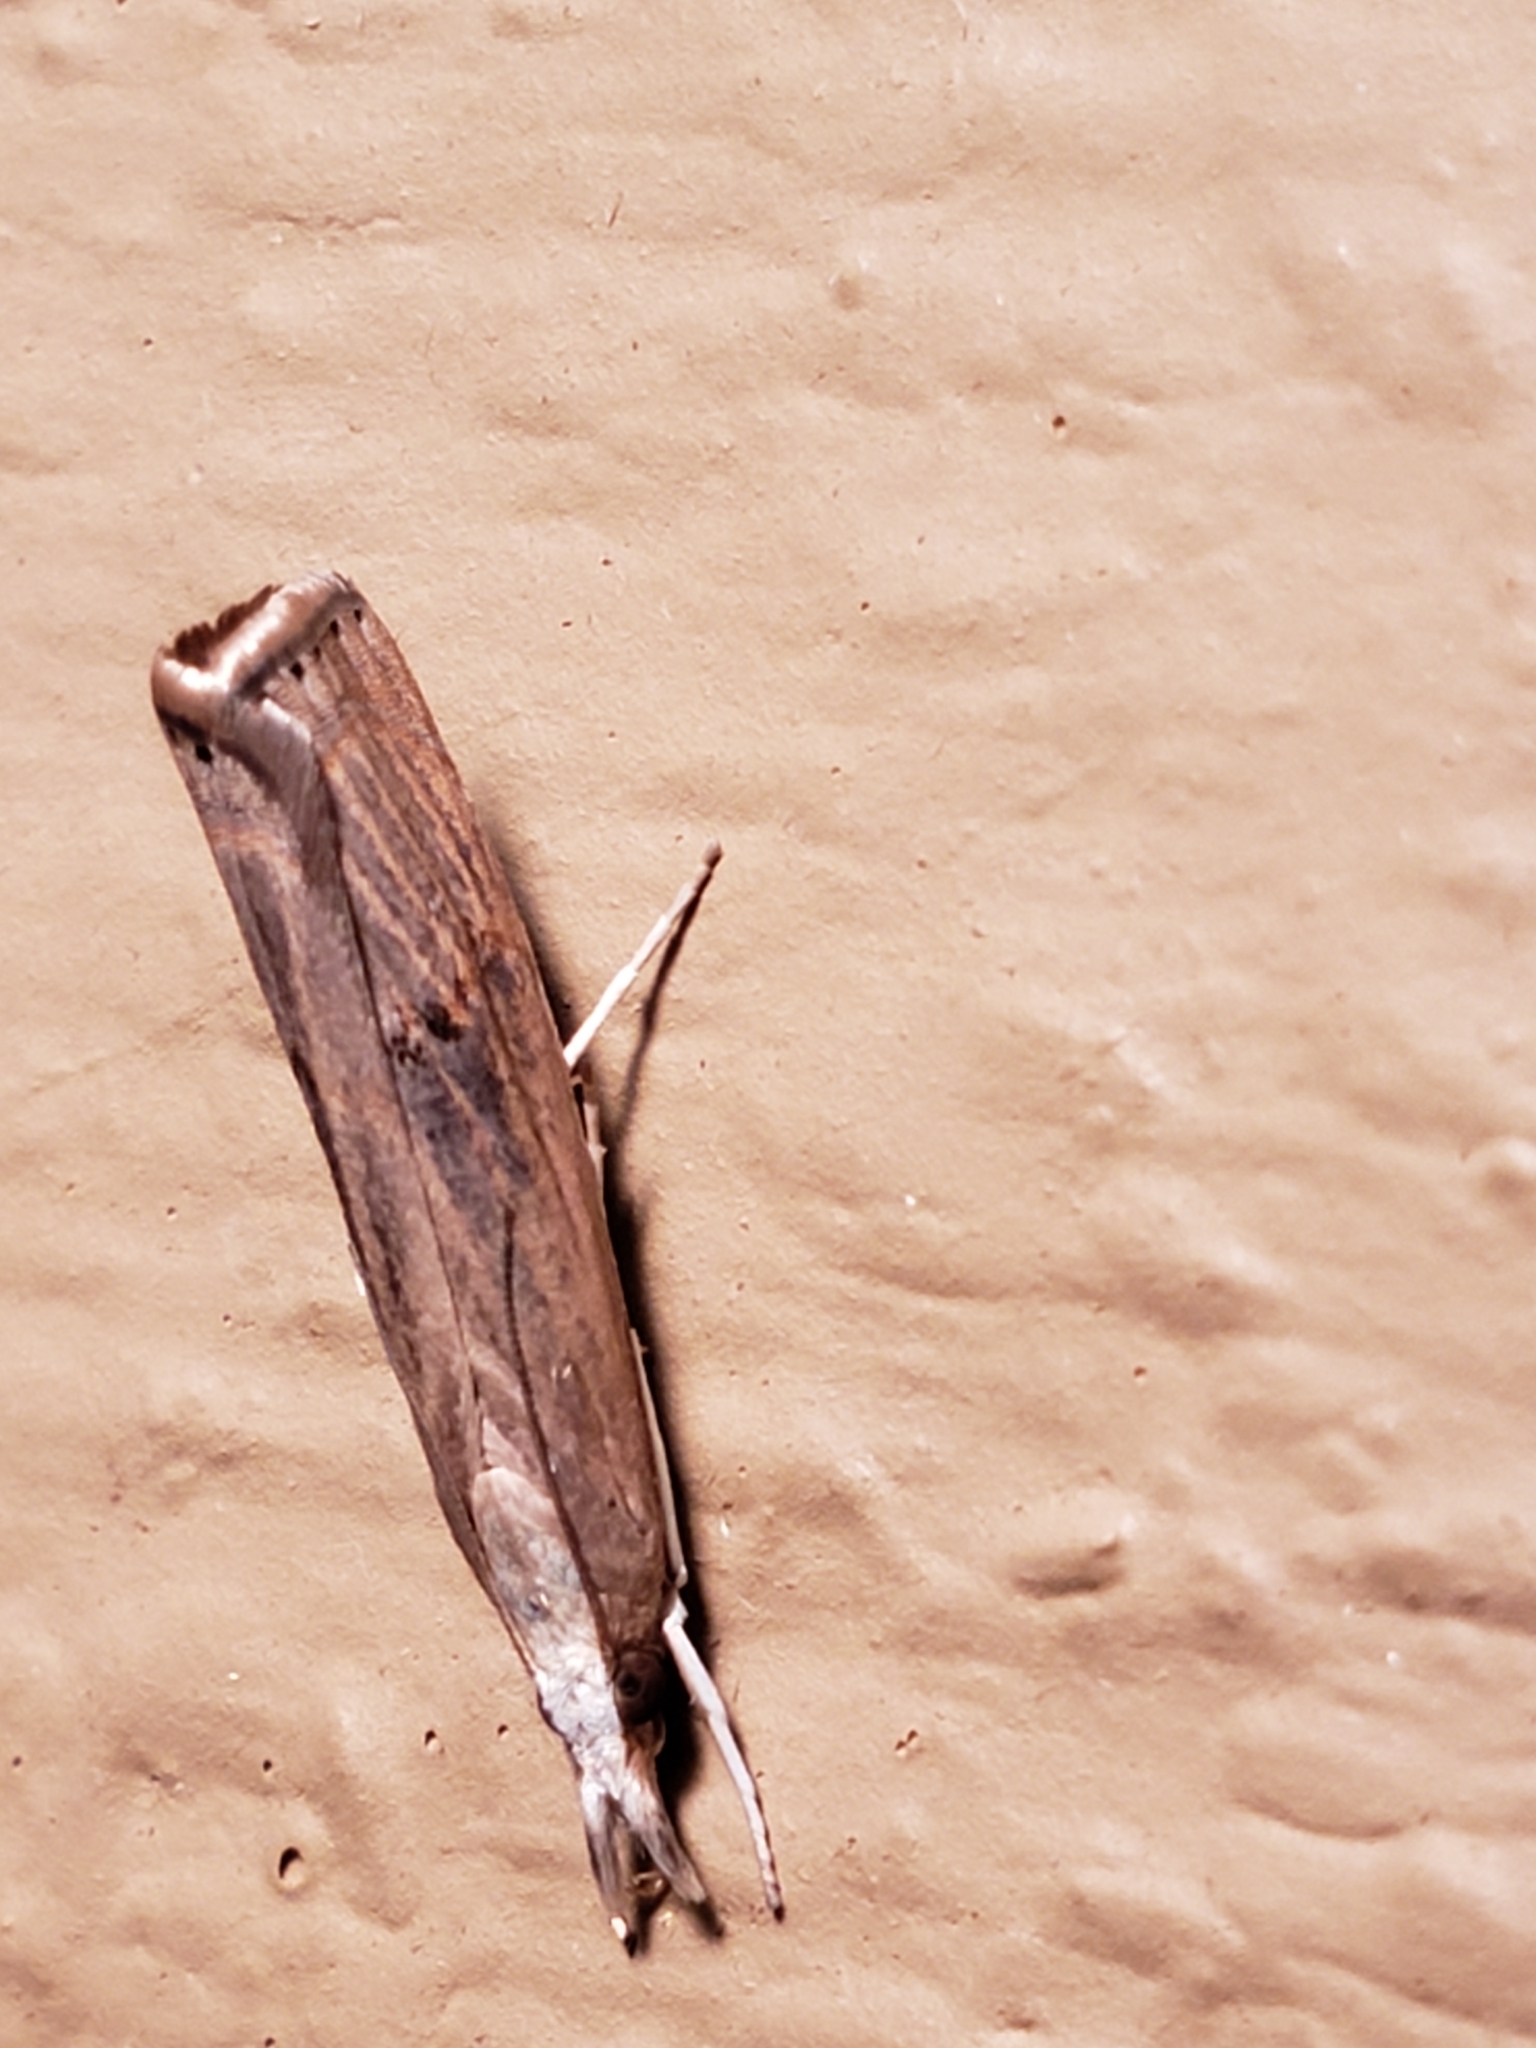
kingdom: Animalia
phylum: Arthropoda
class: Insecta
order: Lepidoptera
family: Crambidae
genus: Parapediasia
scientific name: Parapediasia teterellus
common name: Bluegrass webworm moth
